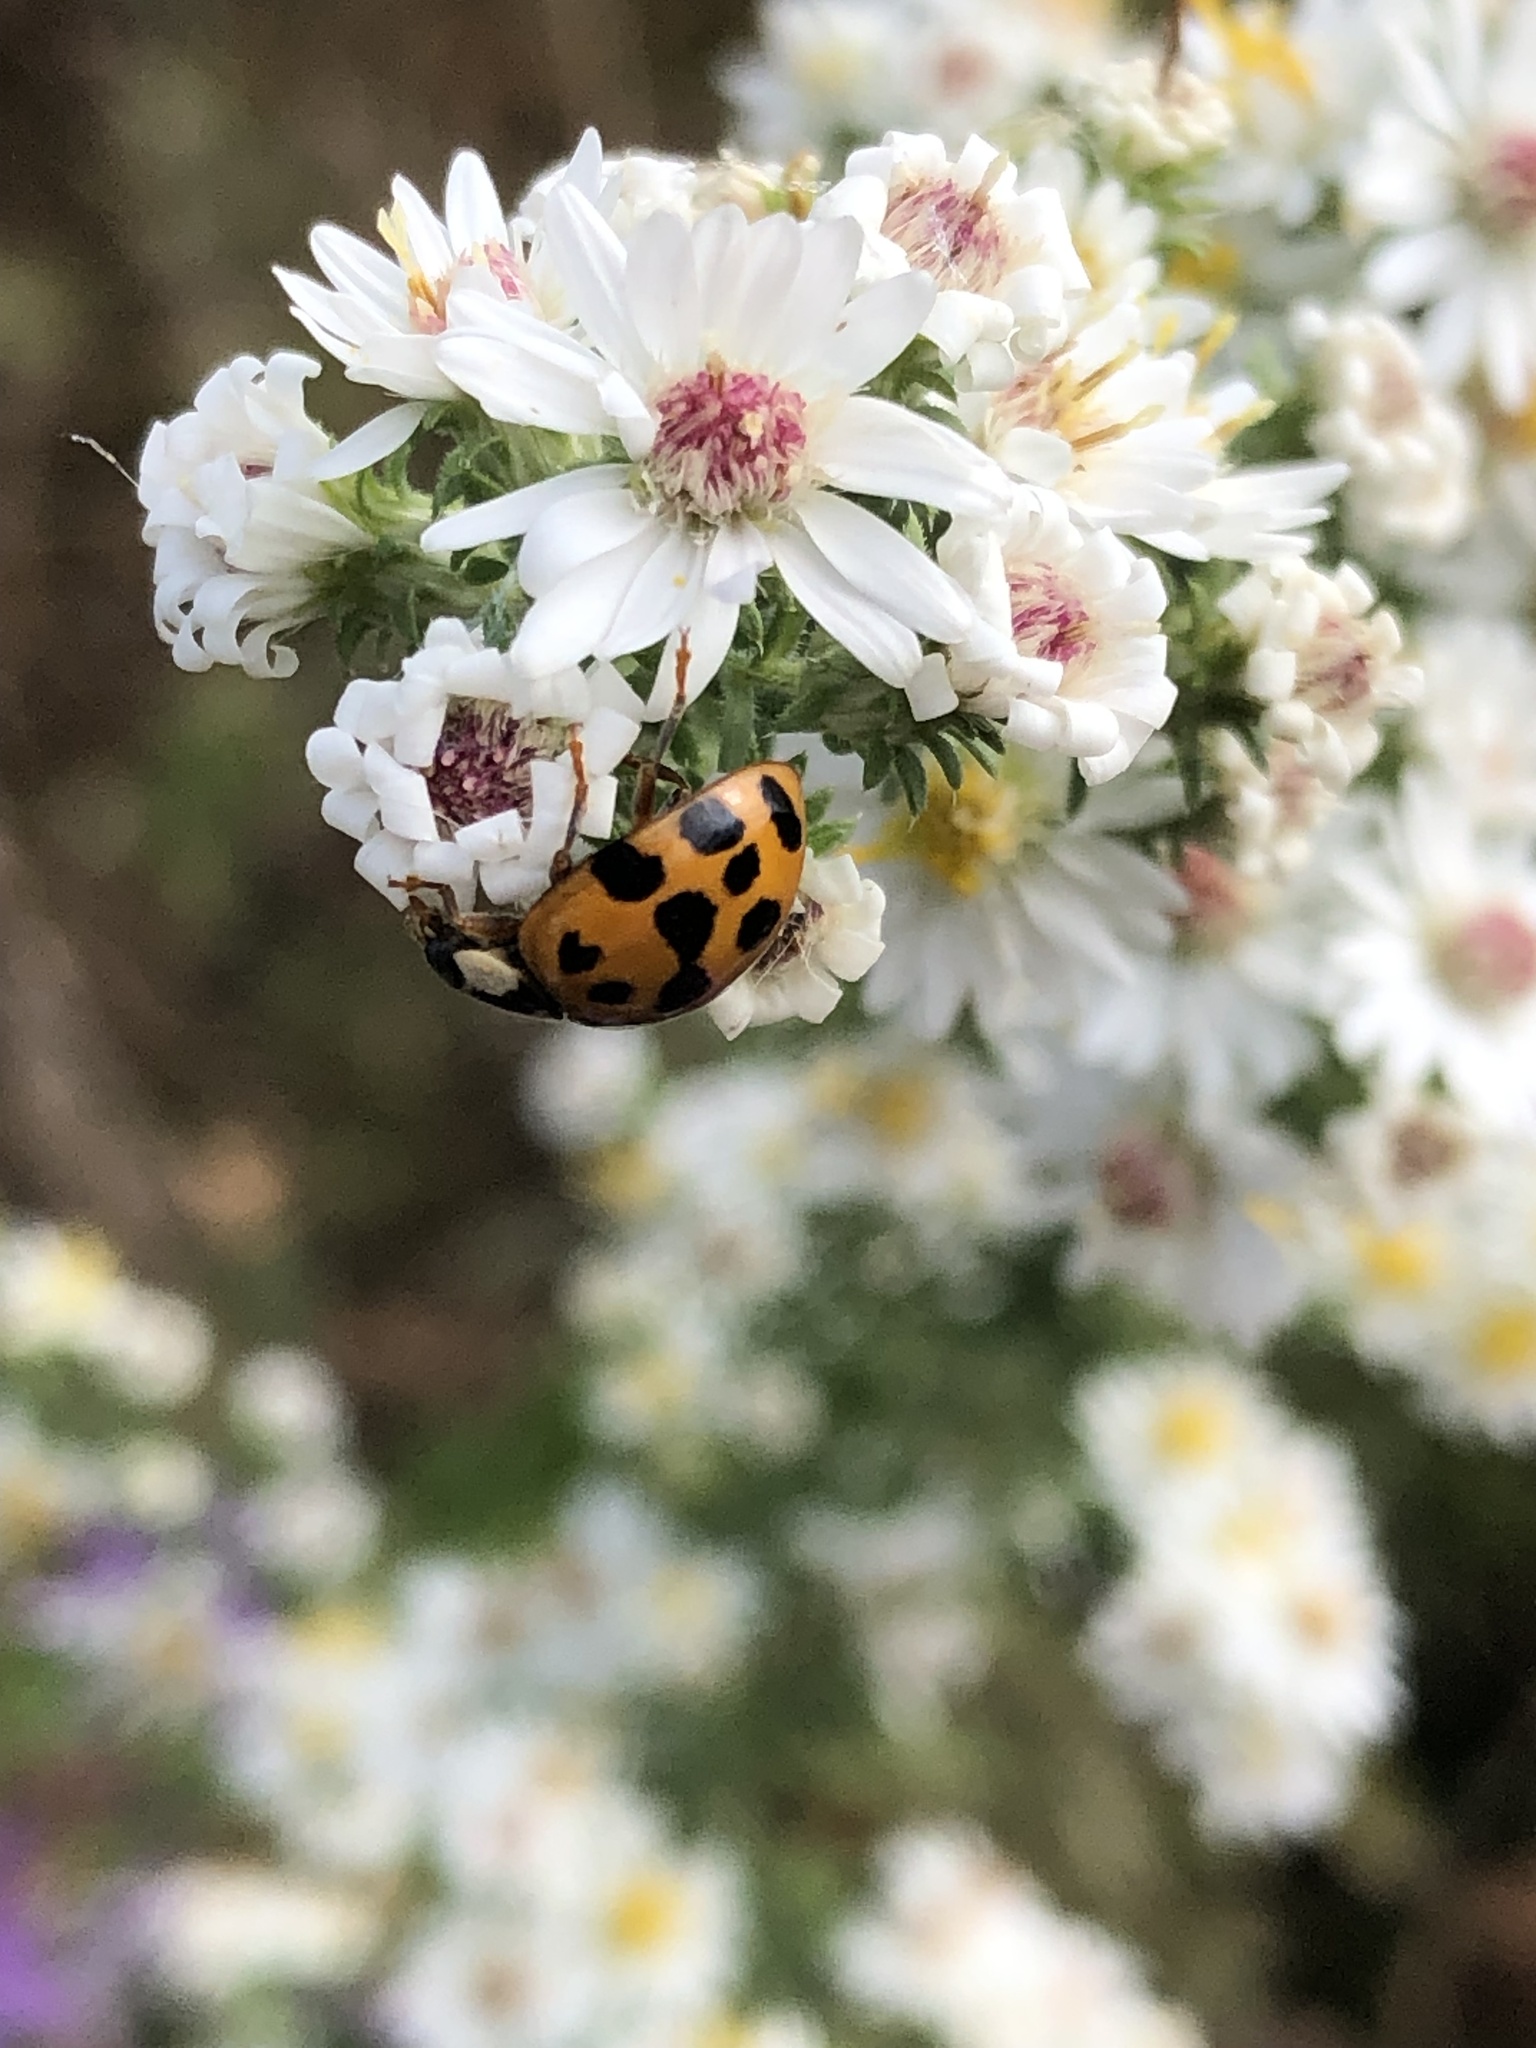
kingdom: Animalia
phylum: Arthropoda
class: Insecta
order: Coleoptera
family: Coccinellidae
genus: Harmonia
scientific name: Harmonia axyridis
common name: Harlequin ladybird
